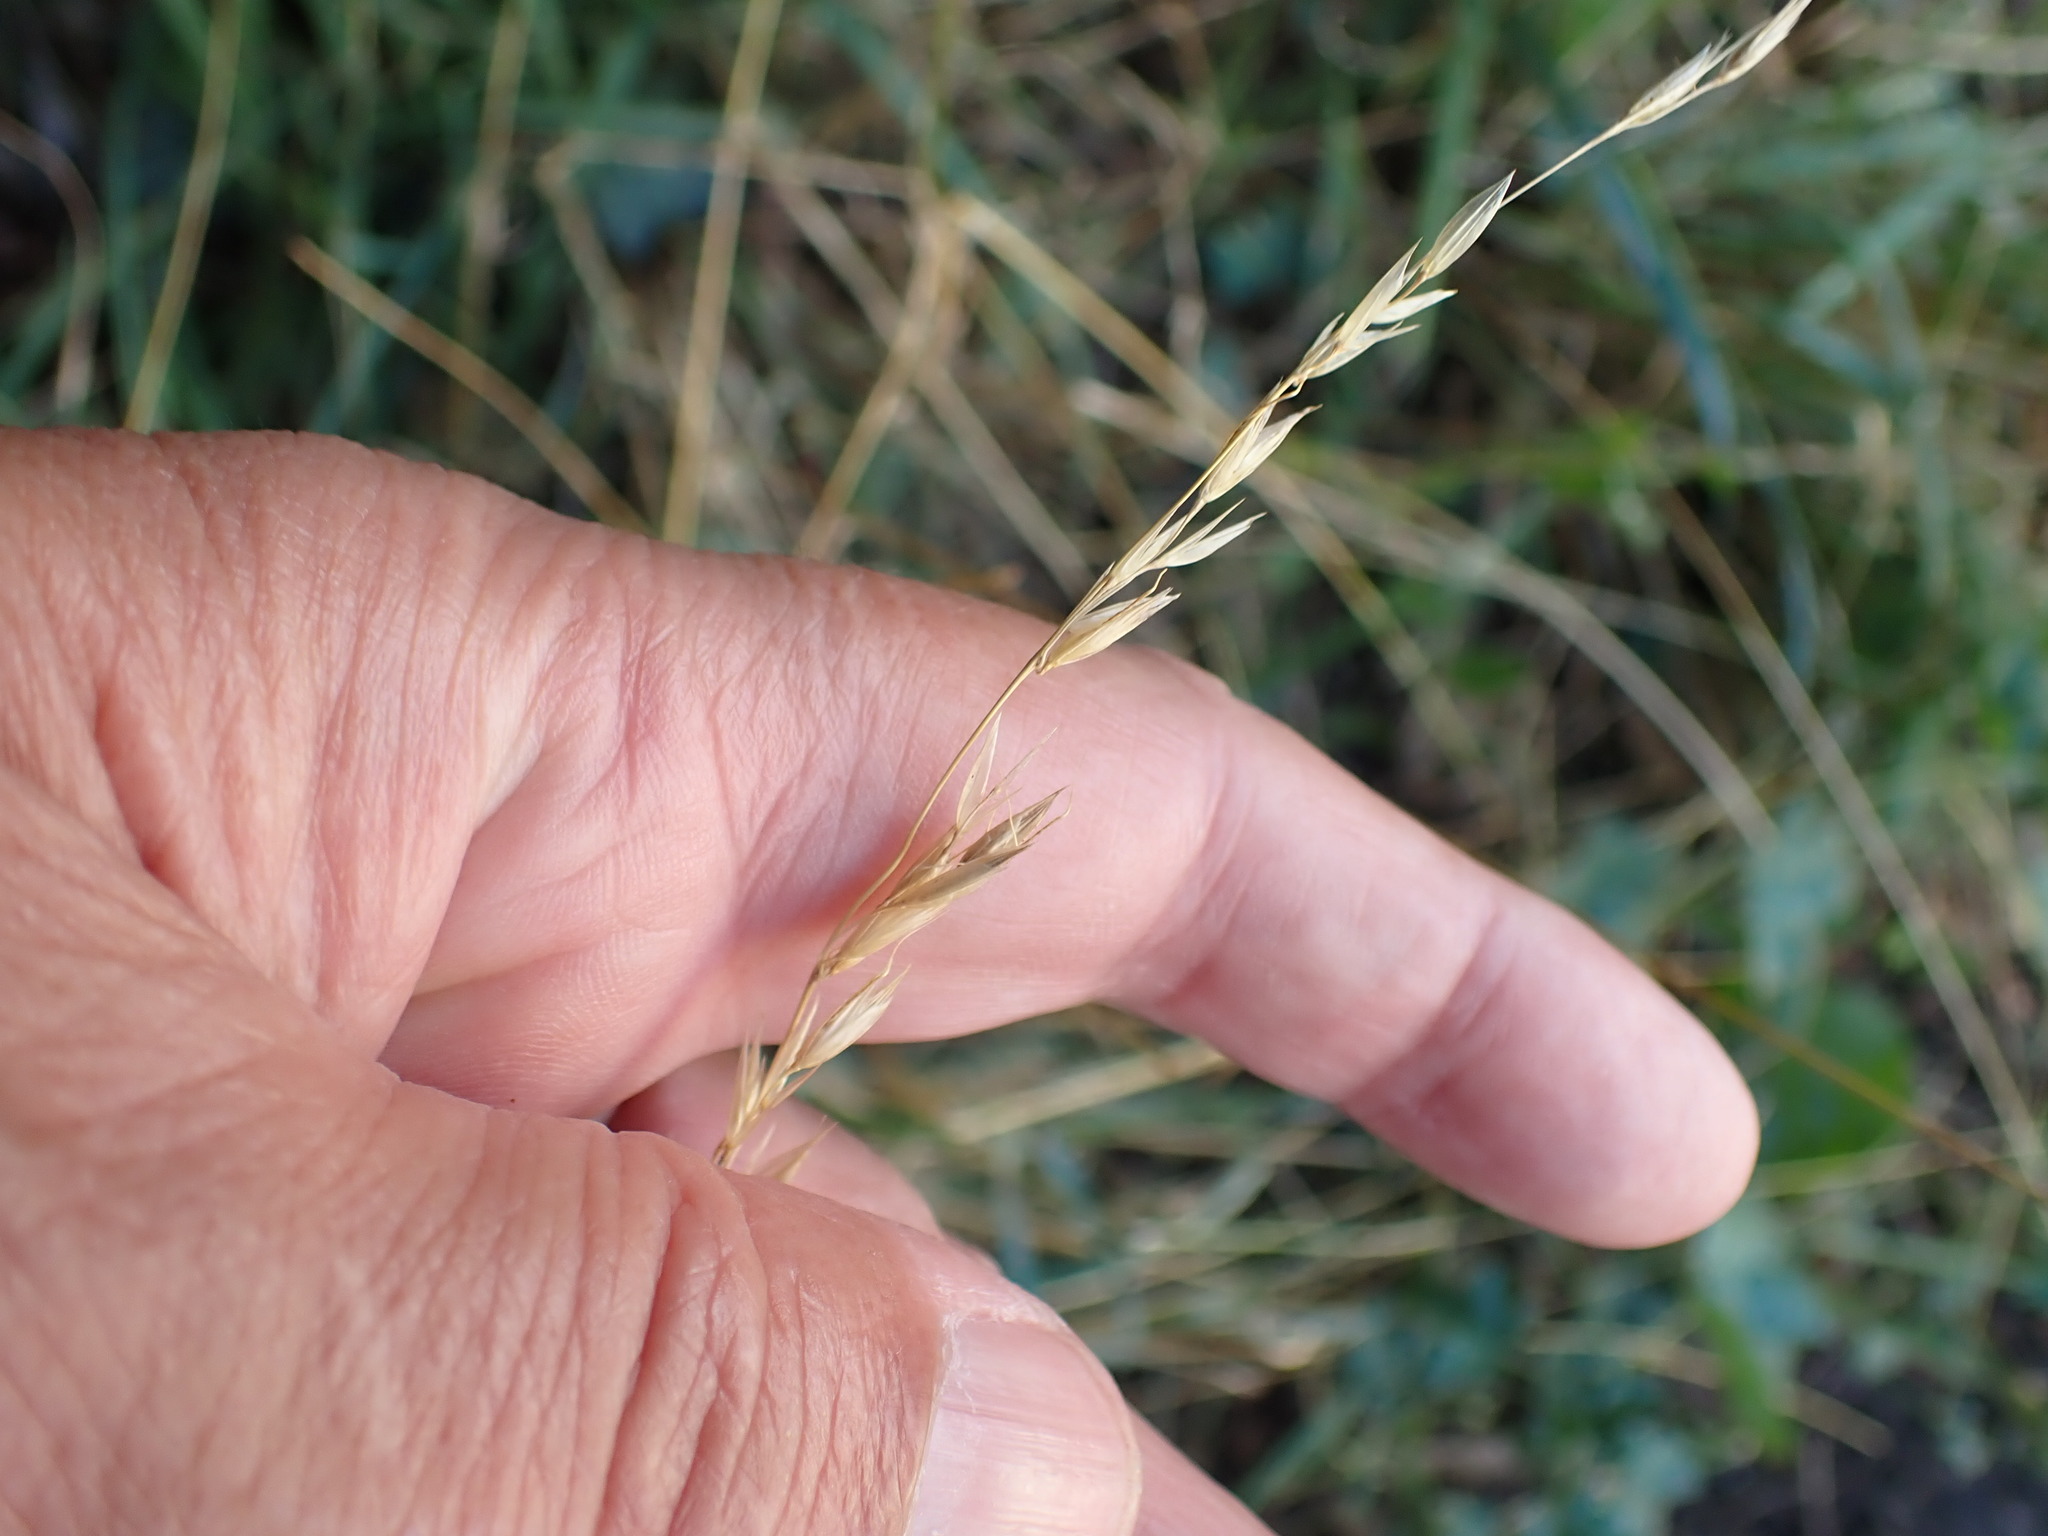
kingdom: Plantae
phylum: Tracheophyta
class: Liliopsida
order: Poales
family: Poaceae
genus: Arrhenatherum
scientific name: Arrhenatherum elatius
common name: Tall oatgrass
